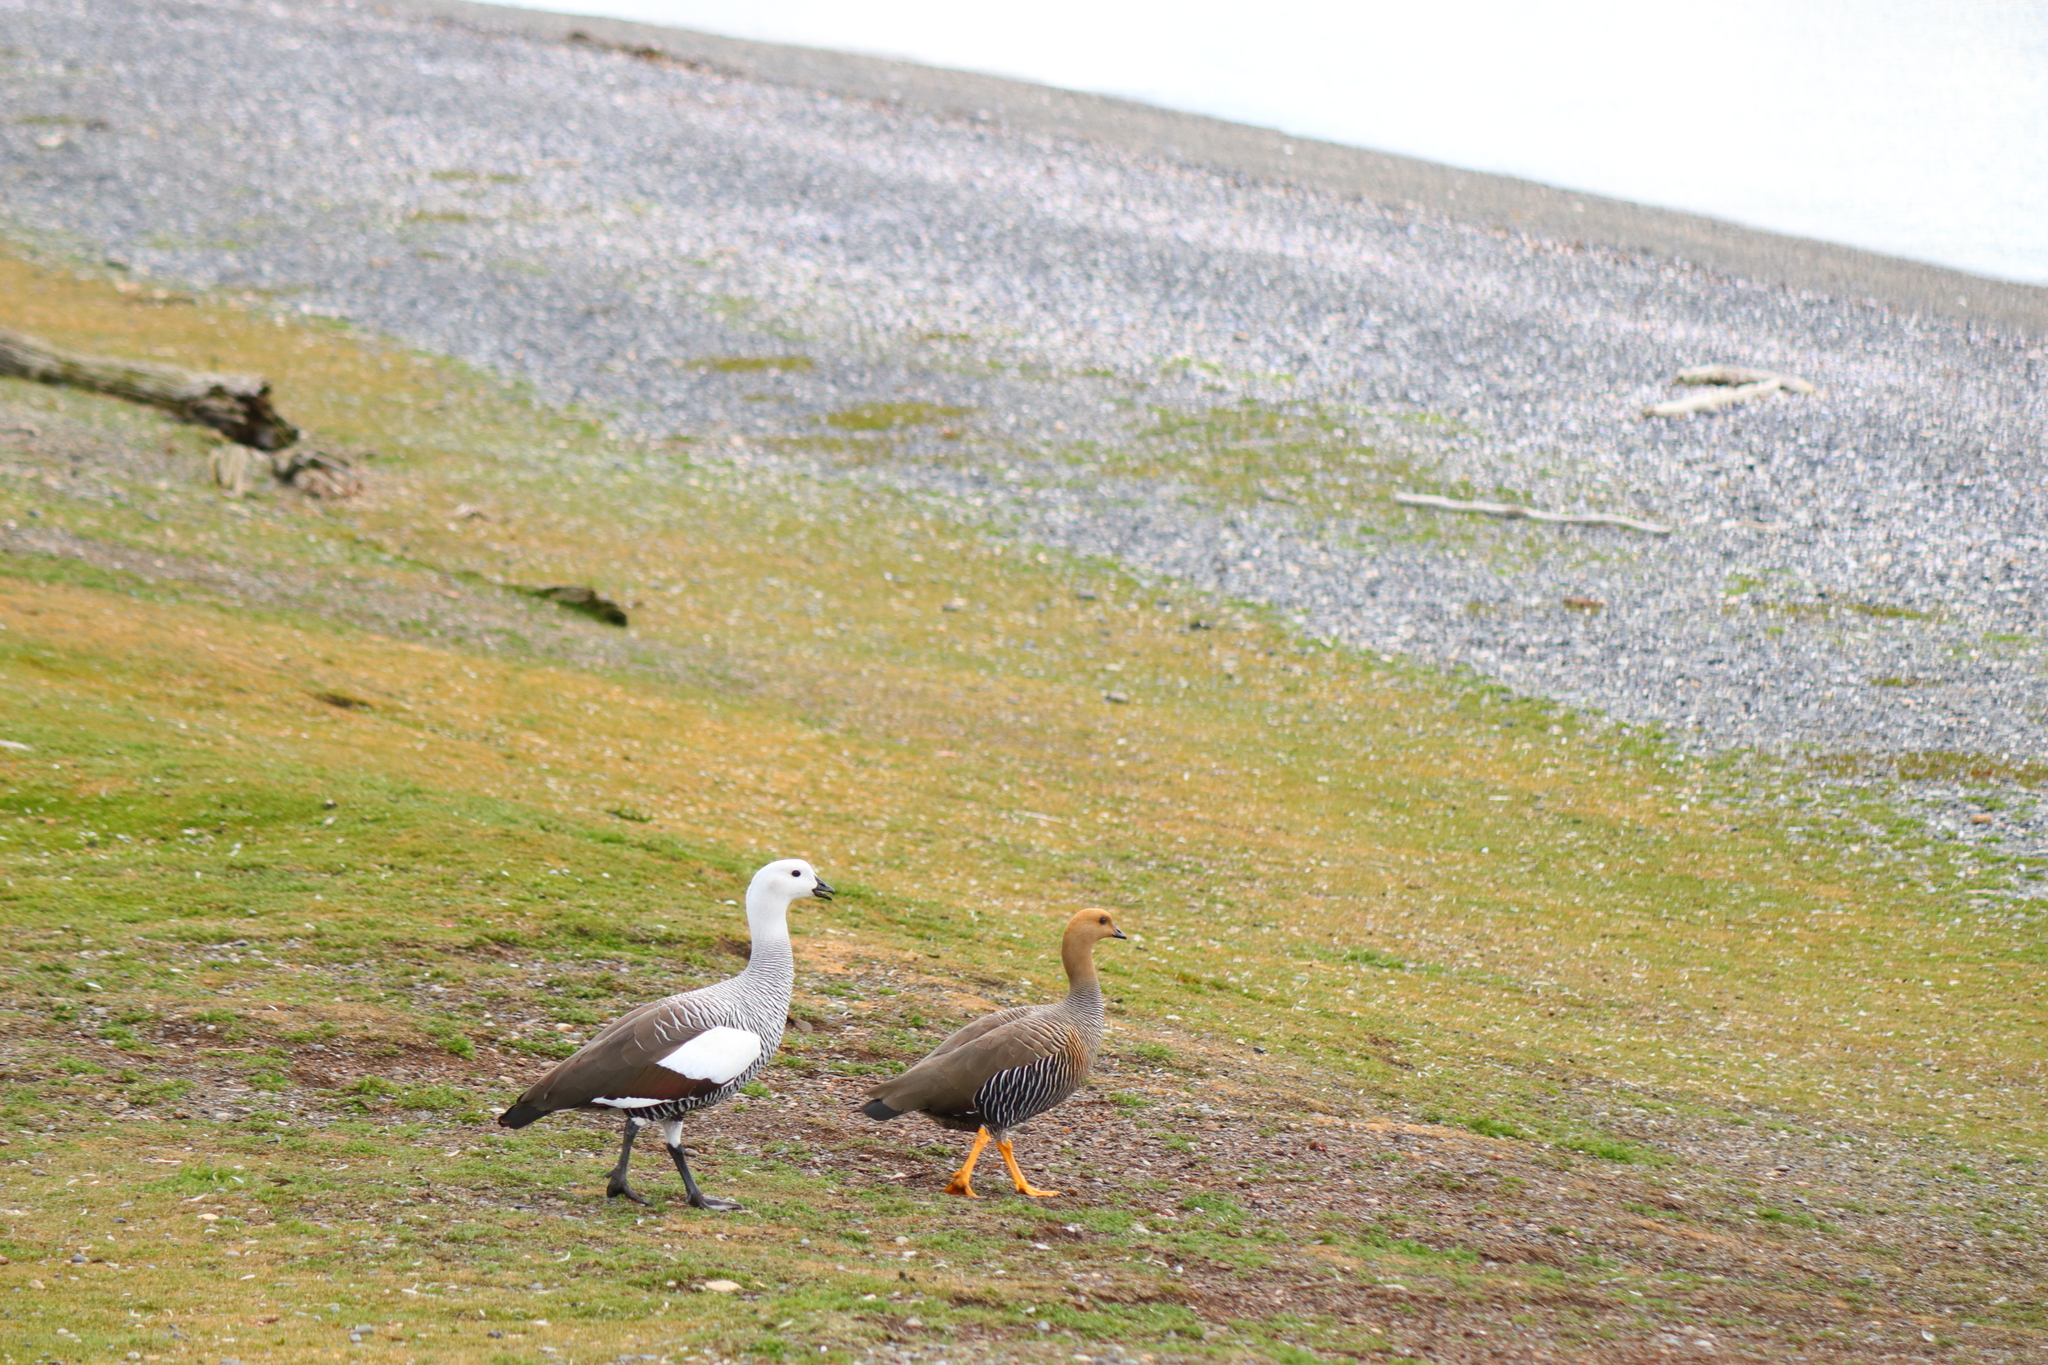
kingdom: Animalia
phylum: Chordata
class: Aves
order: Anseriformes
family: Anatidae
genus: Chloephaga
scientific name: Chloephaga picta
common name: Upland goose
